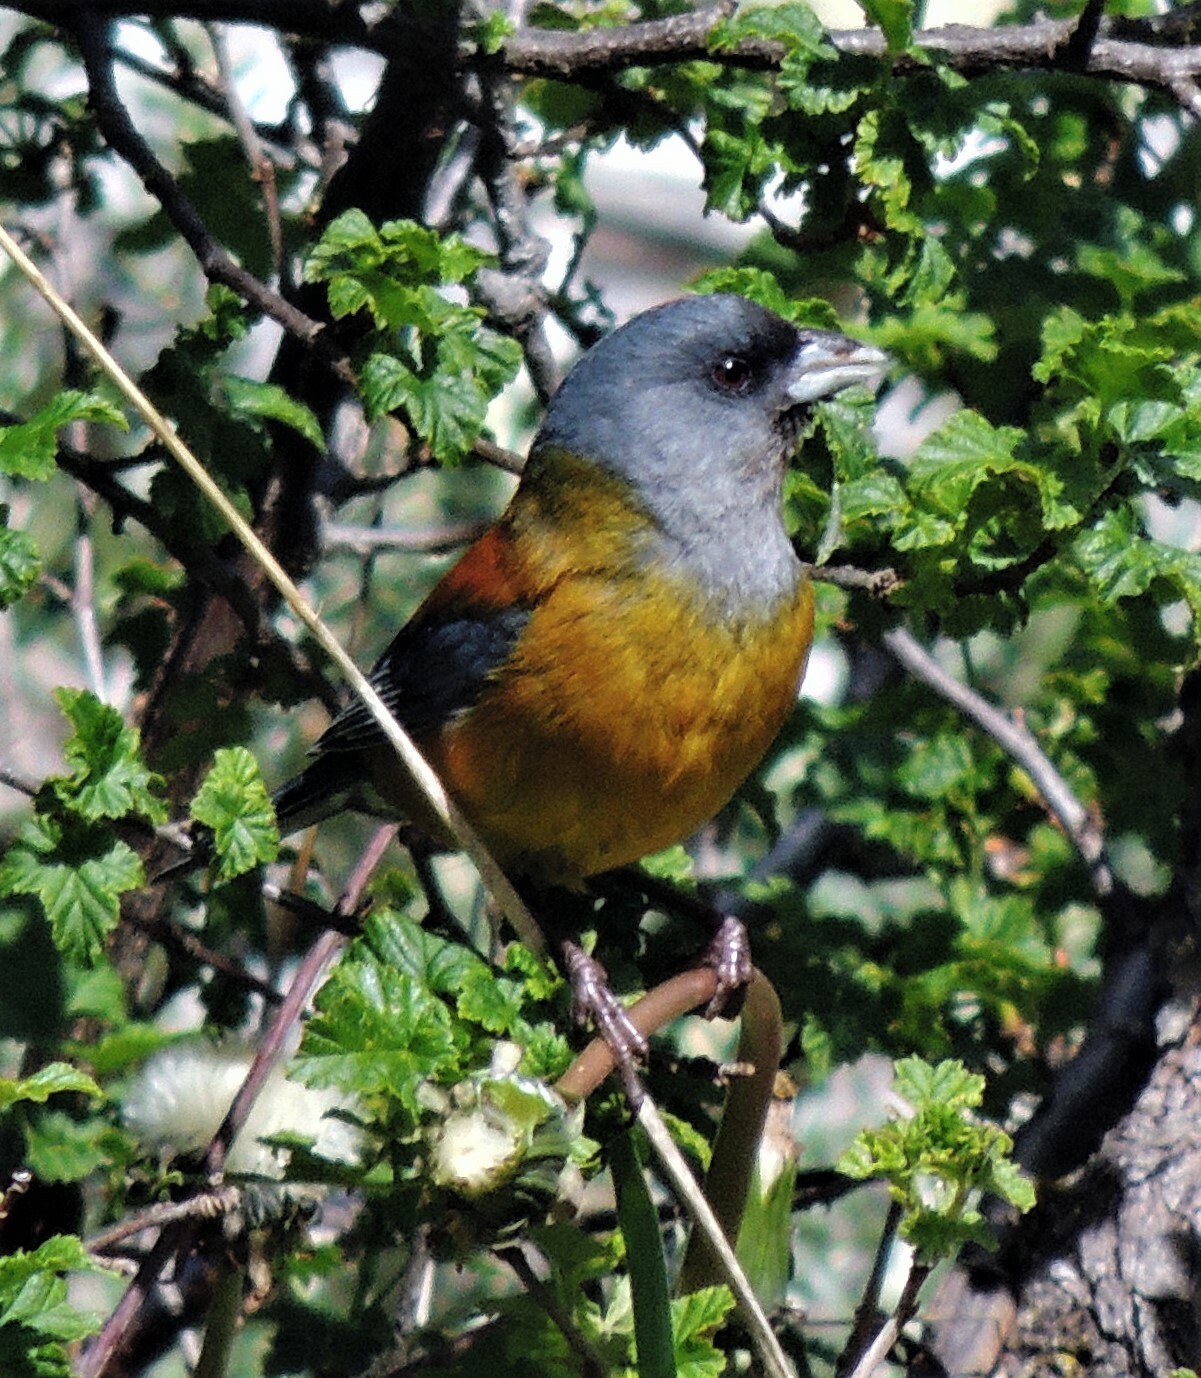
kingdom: Animalia
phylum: Chordata
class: Aves
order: Passeriformes
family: Thraupidae
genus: Phrygilus
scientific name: Phrygilus patagonicus
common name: Patagonian sierra finch
